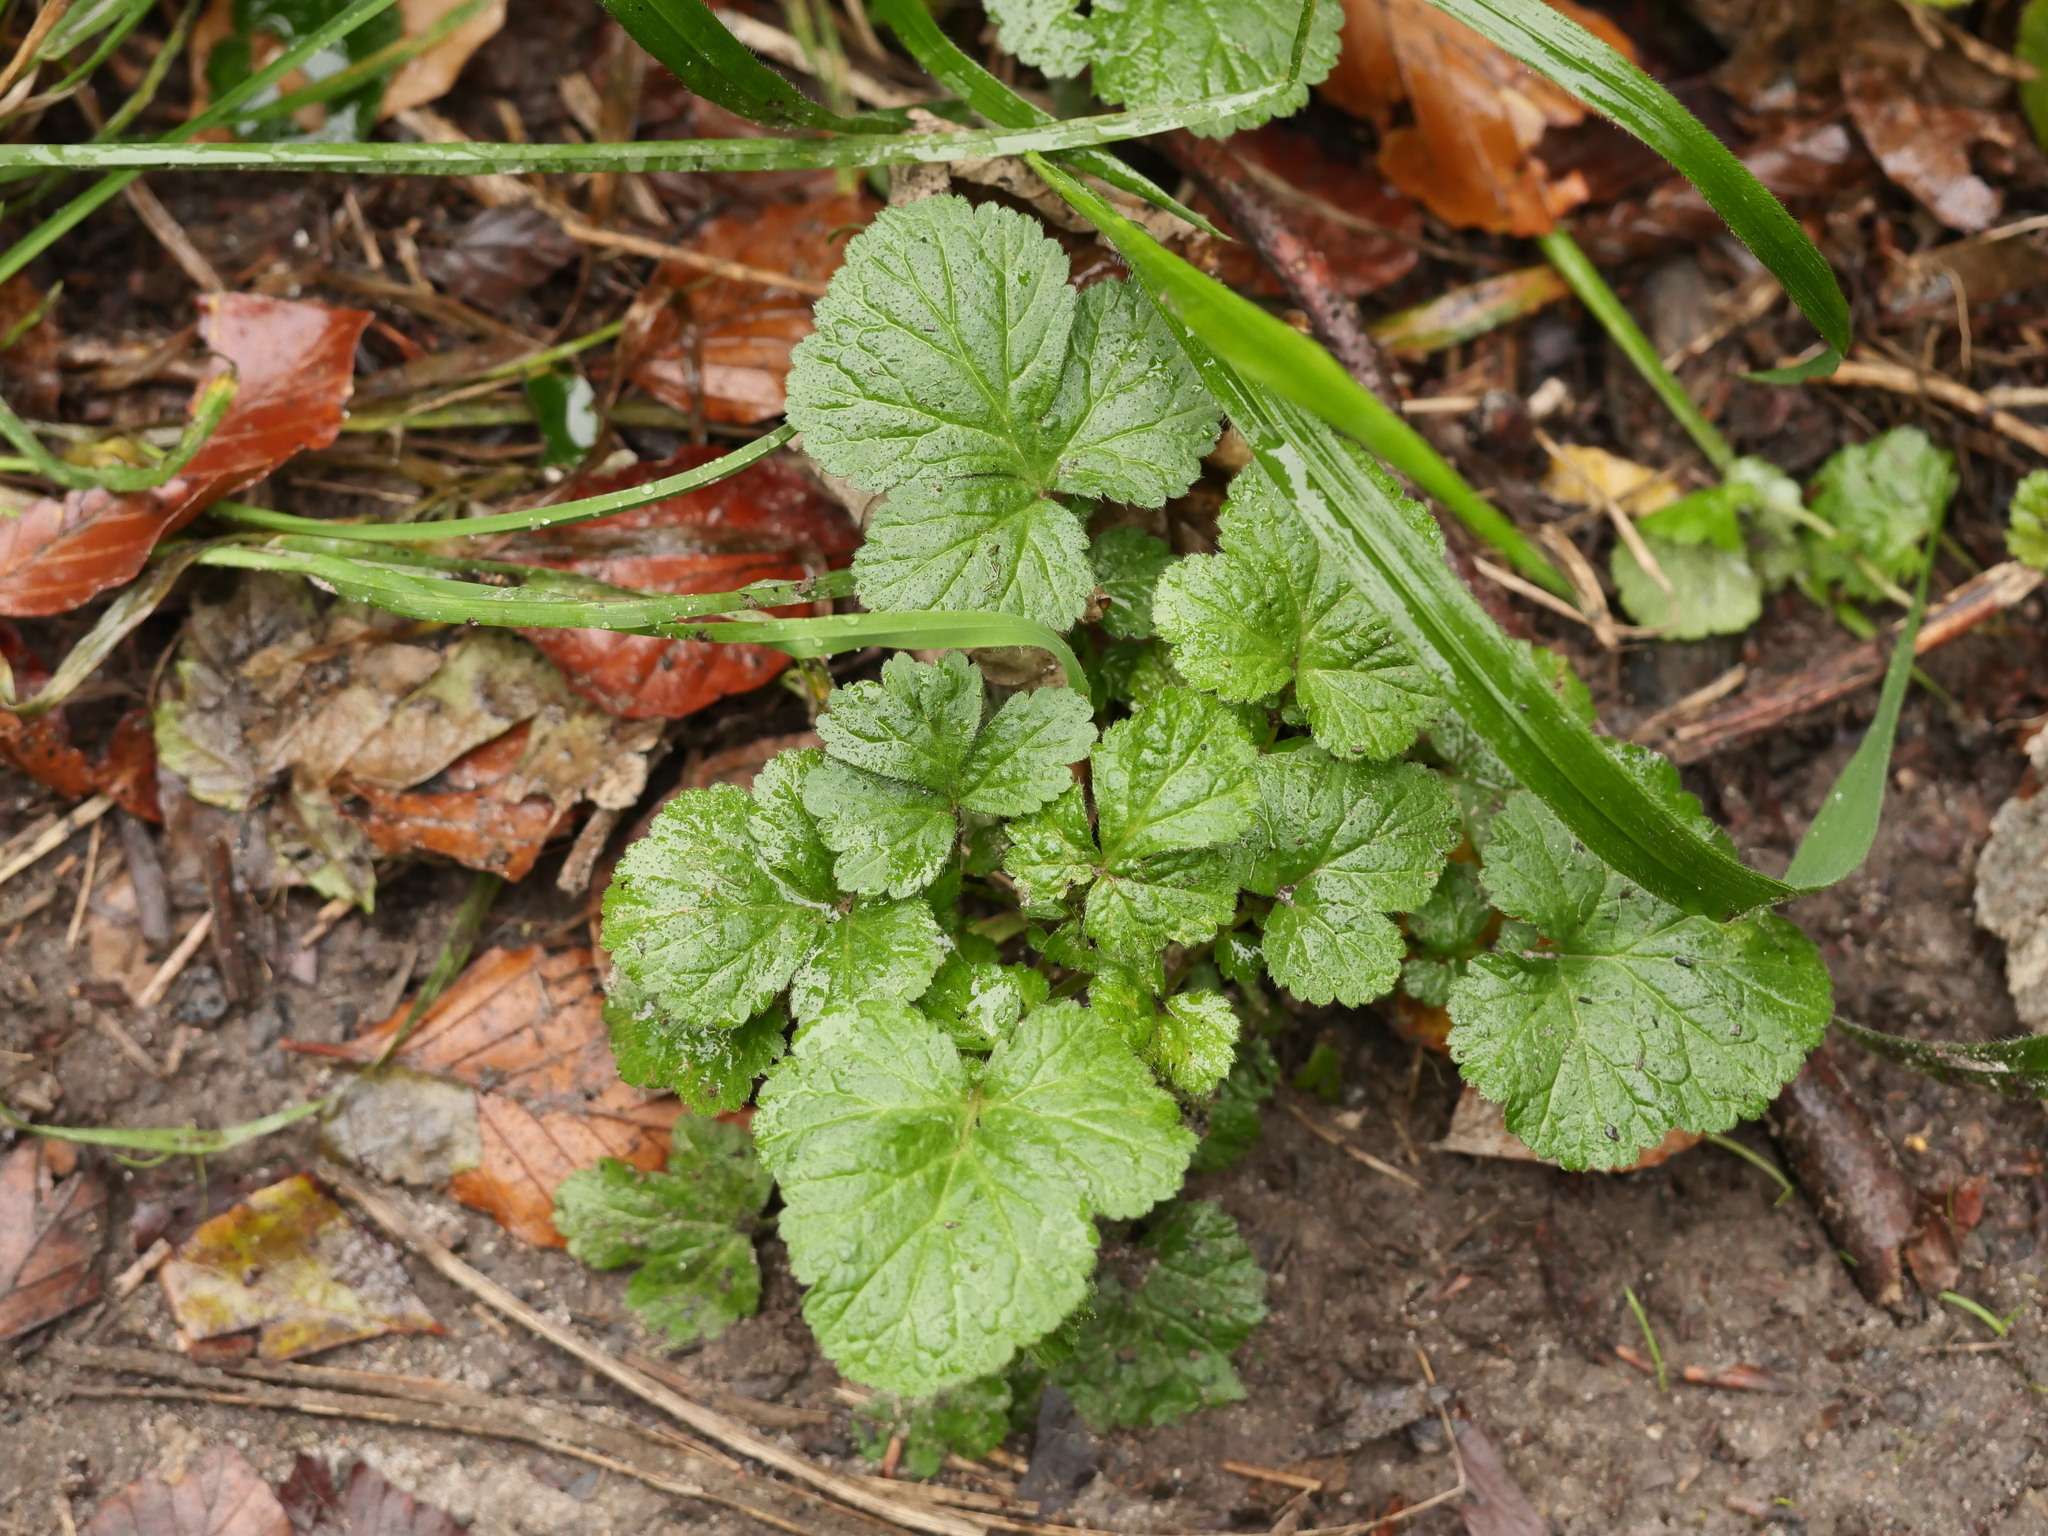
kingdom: Plantae
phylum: Tracheophyta
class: Magnoliopsida
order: Rosales
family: Rosaceae
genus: Geum
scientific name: Geum urbanum
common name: Wood avens
